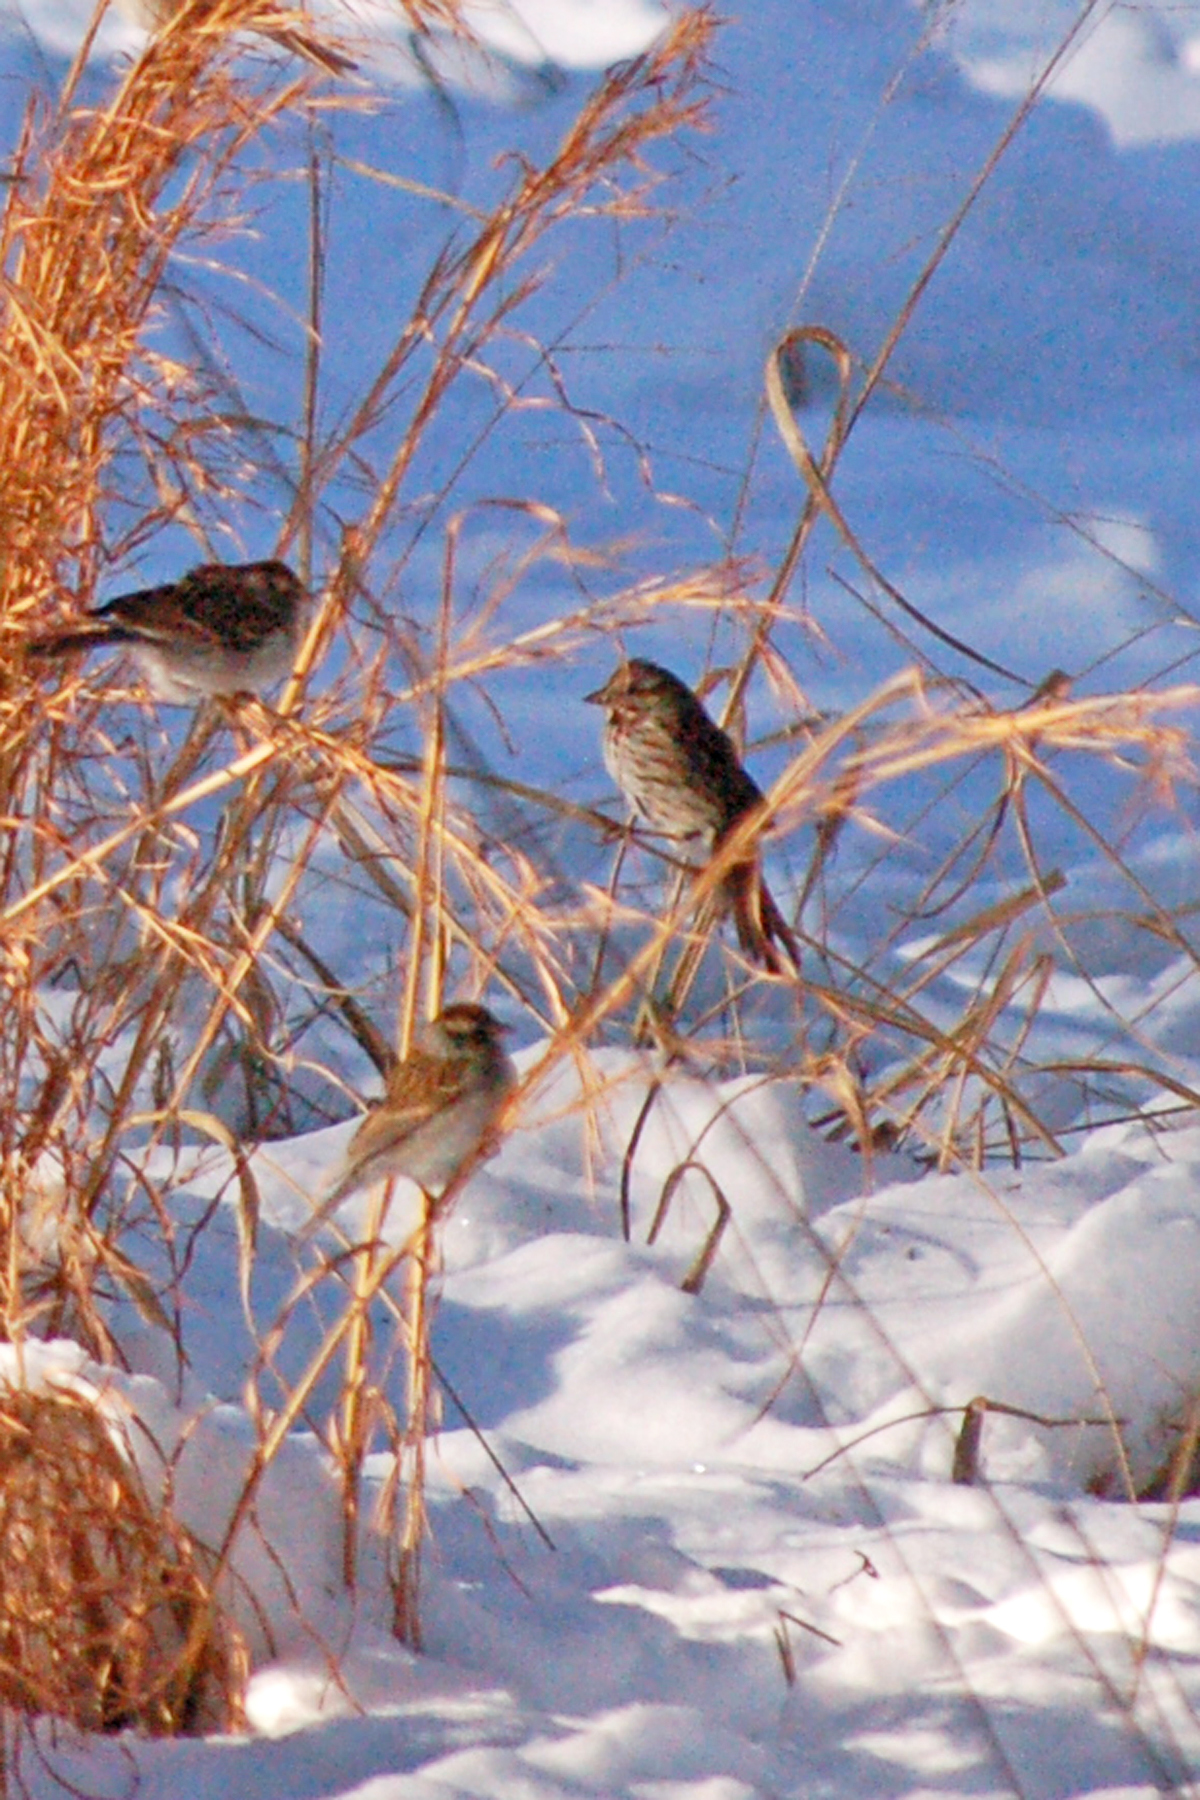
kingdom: Animalia
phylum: Chordata
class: Aves
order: Passeriformes
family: Passerellidae
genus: Melospiza
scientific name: Melospiza melodia
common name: Song sparrow
